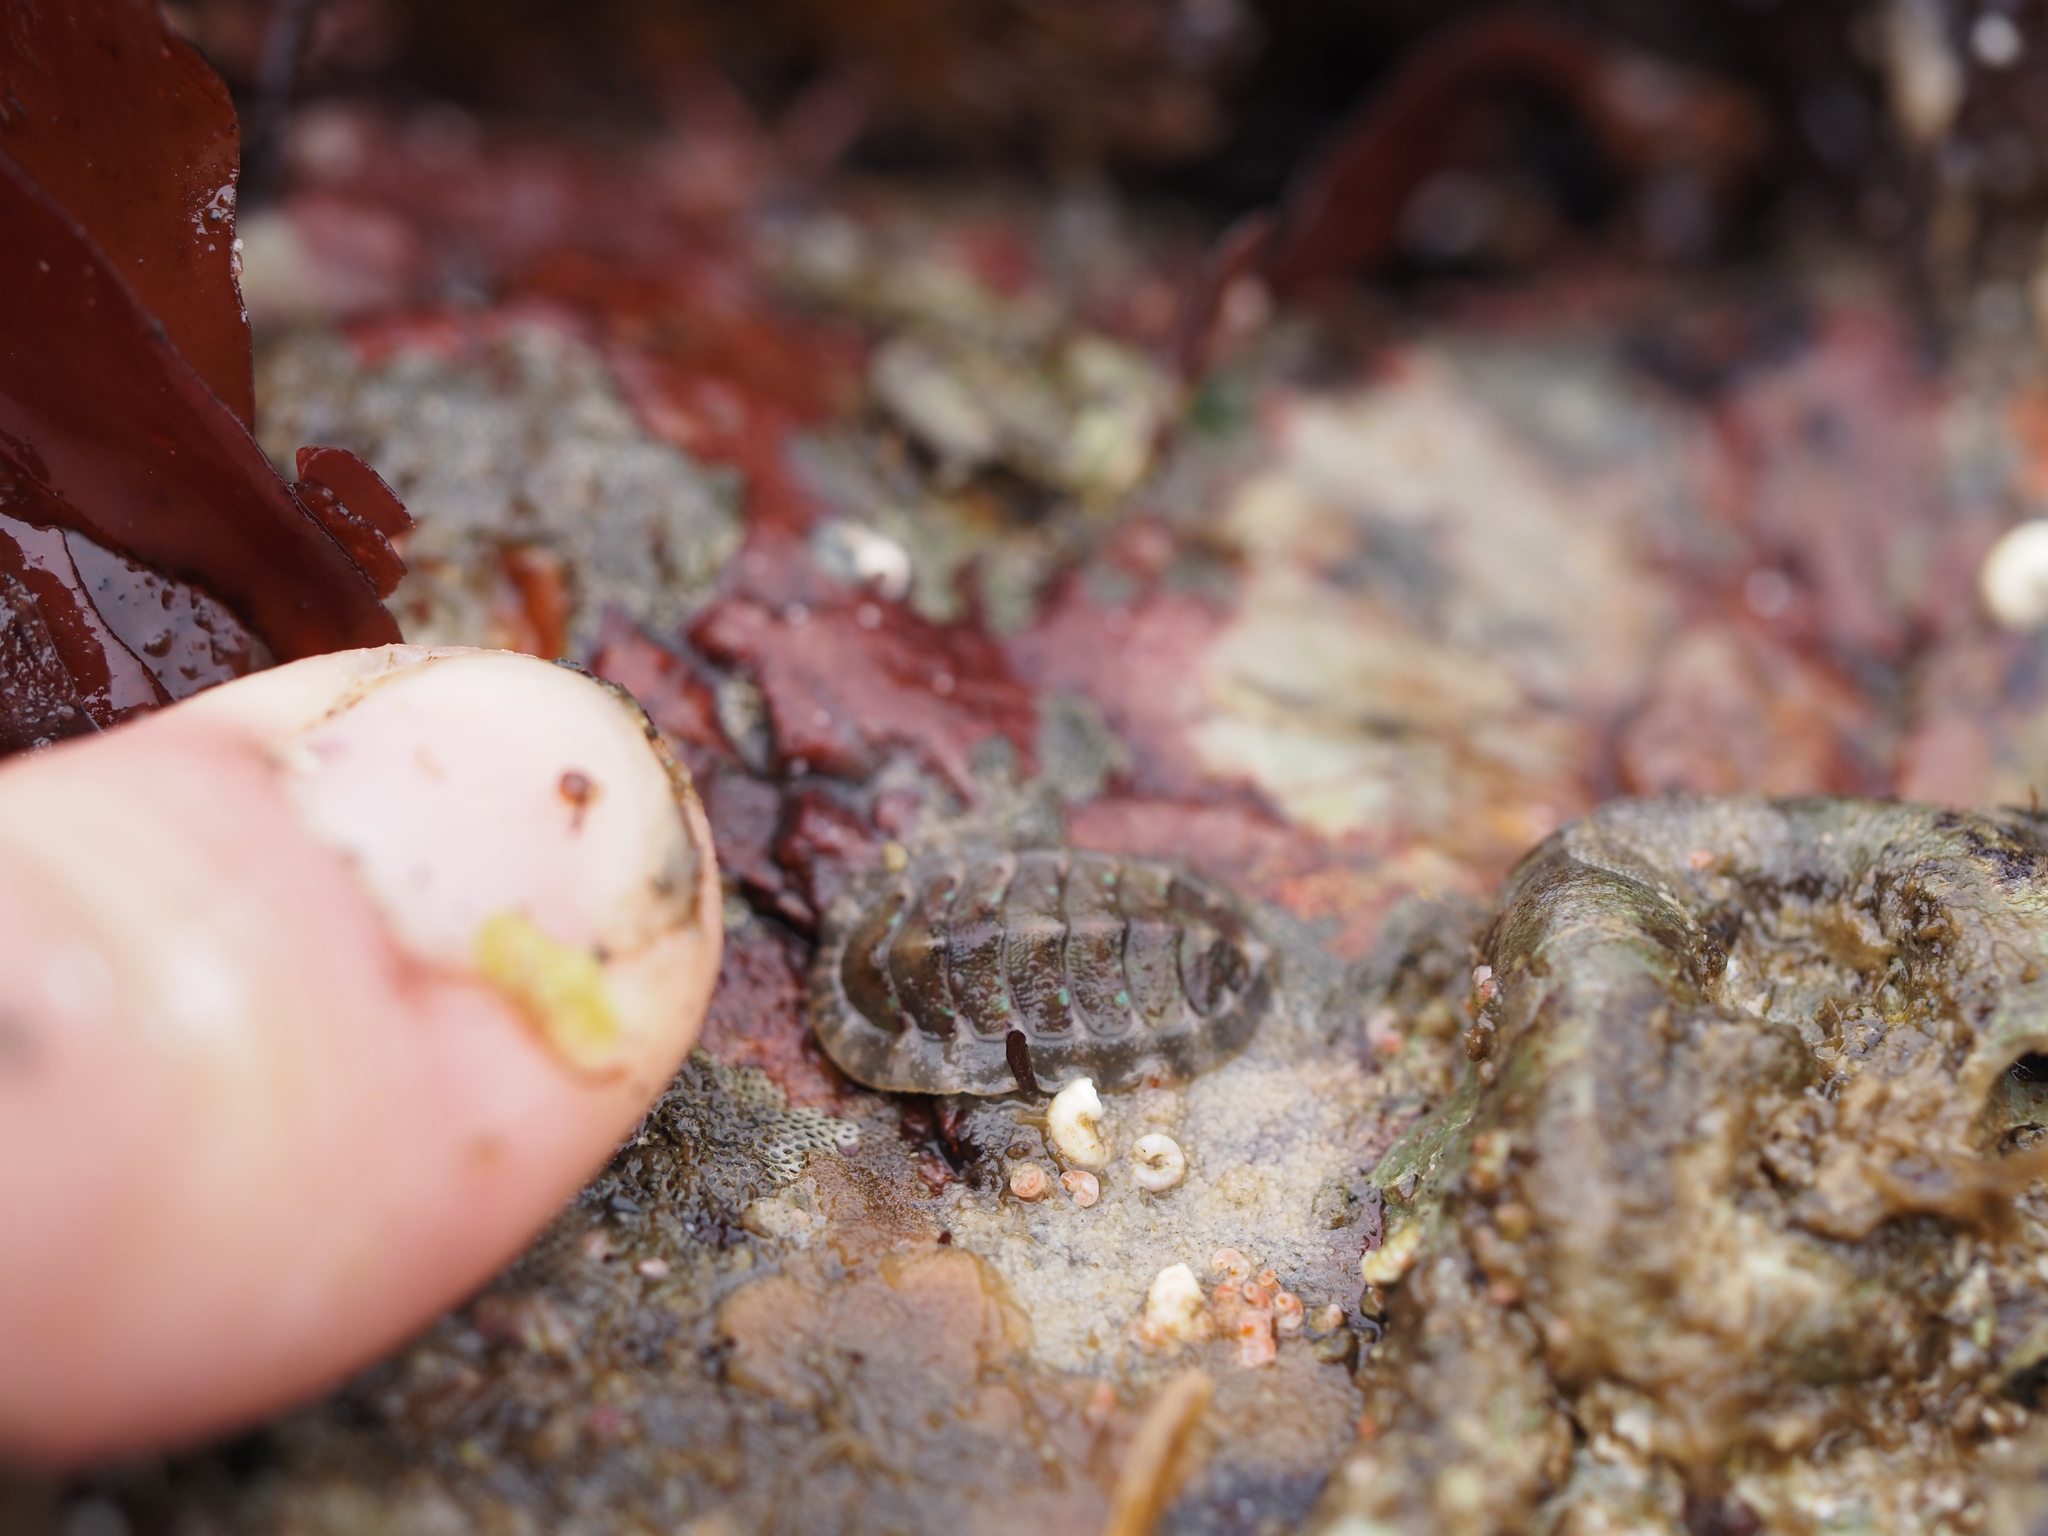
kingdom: Animalia
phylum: Mollusca
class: Polyplacophora
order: Chitonida
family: Mopaliidae
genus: Mopalia
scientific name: Mopalia hindsii
